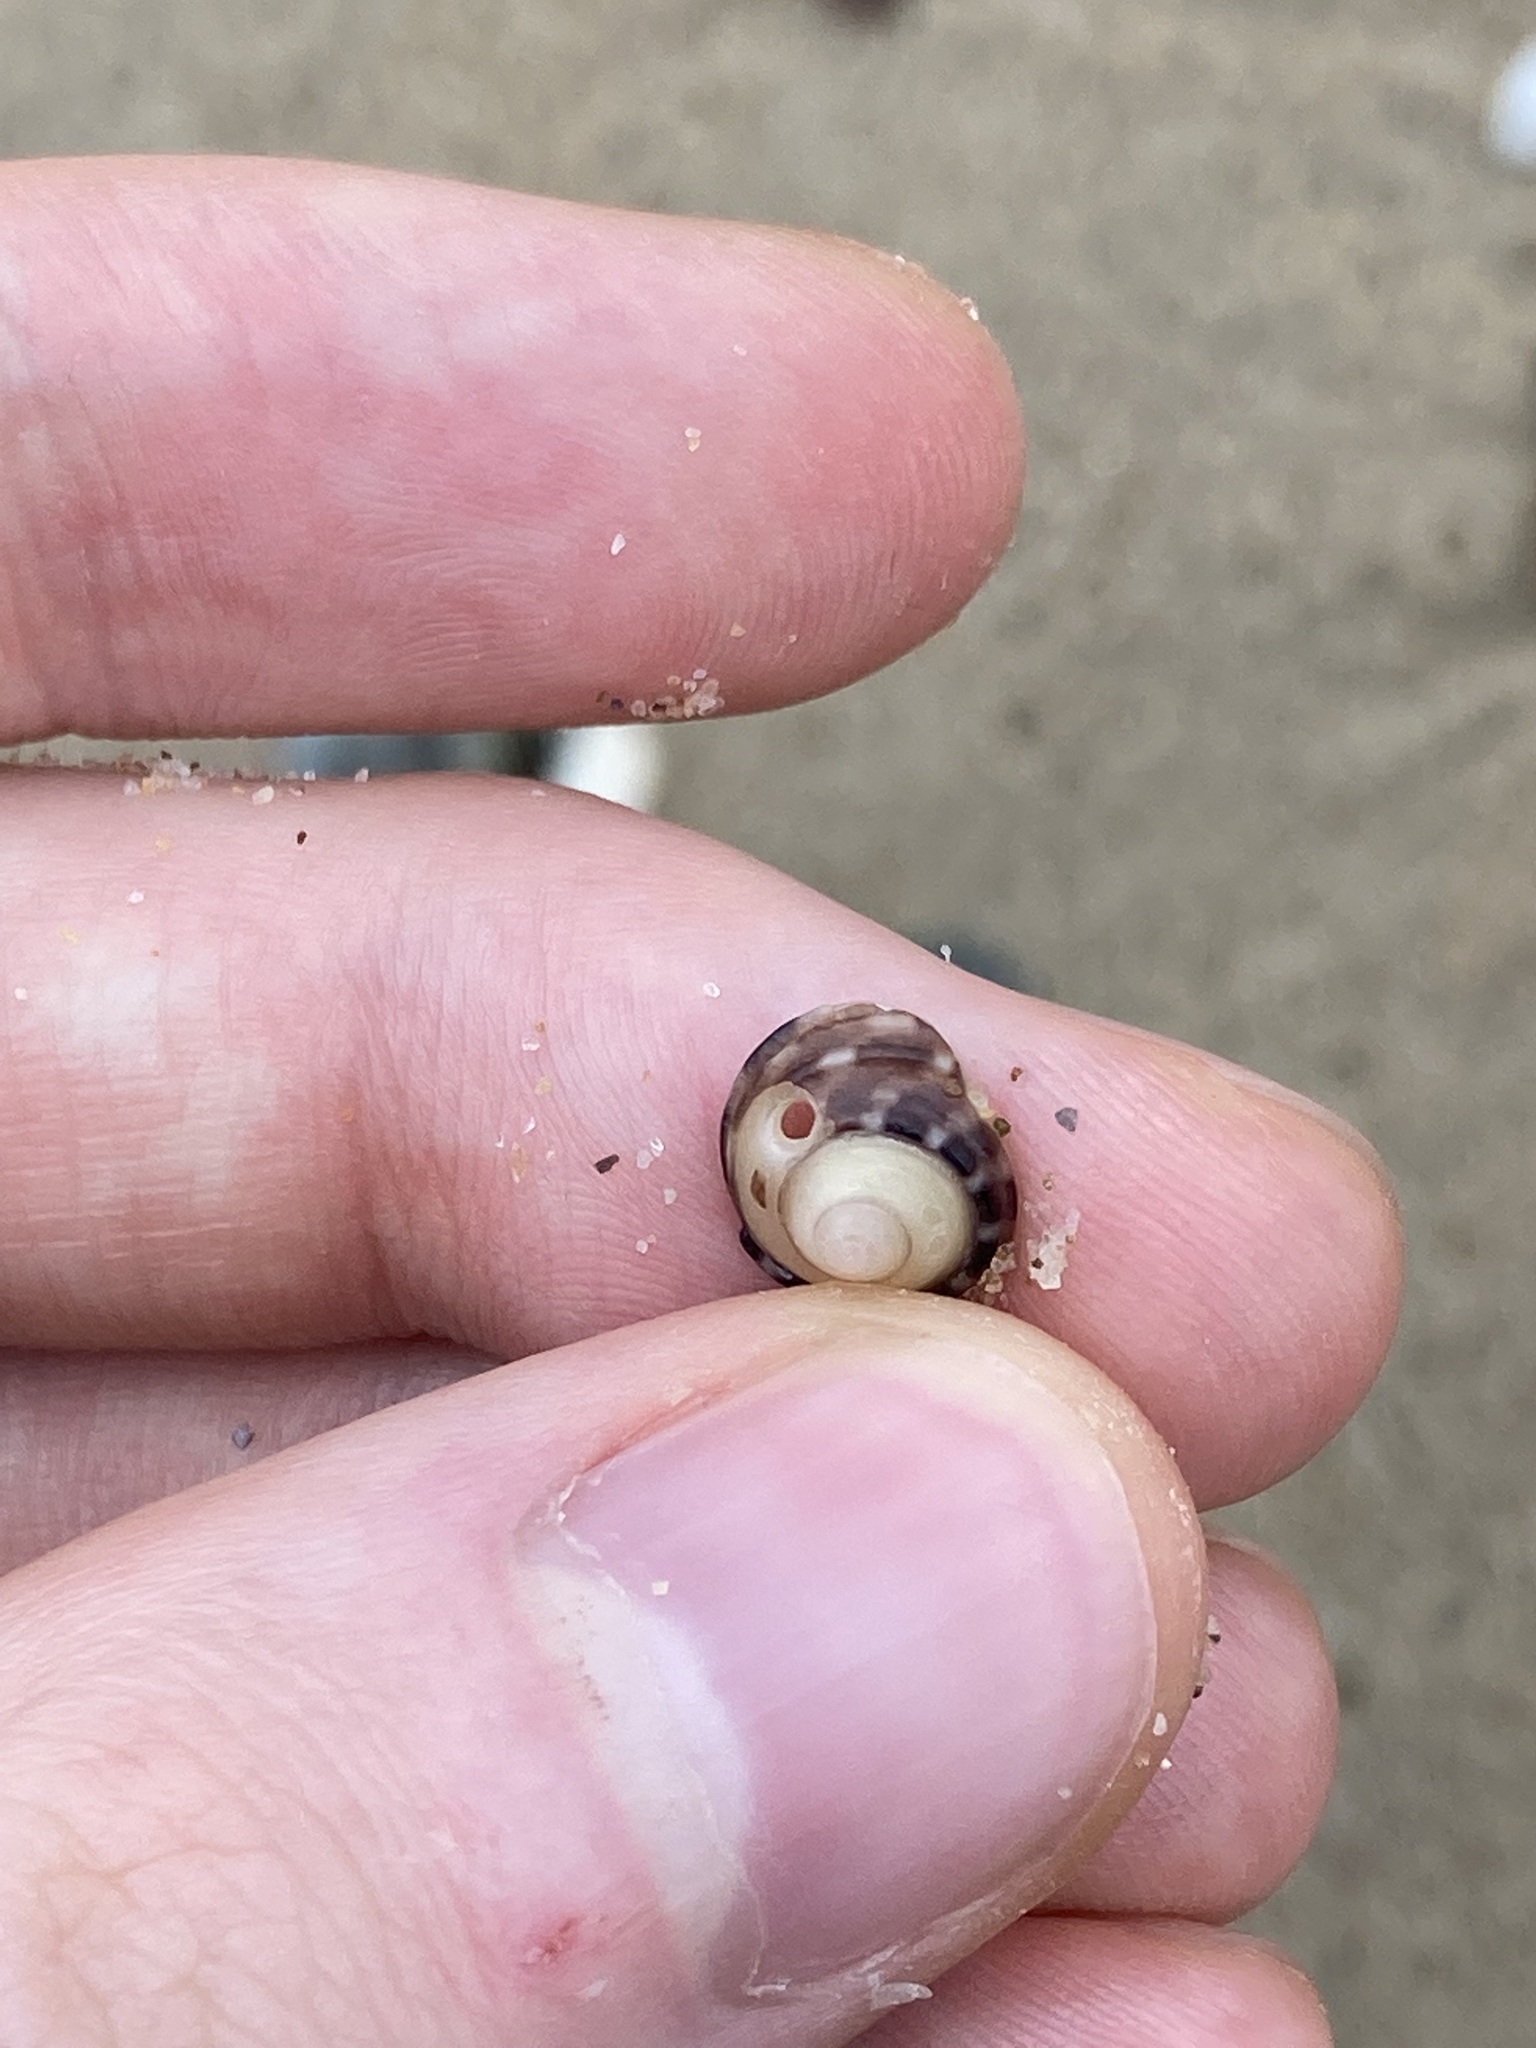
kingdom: Animalia
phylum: Mollusca
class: Gastropoda
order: Trochida
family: Trochidae
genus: Austrocochlea
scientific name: Austrocochlea porcata
